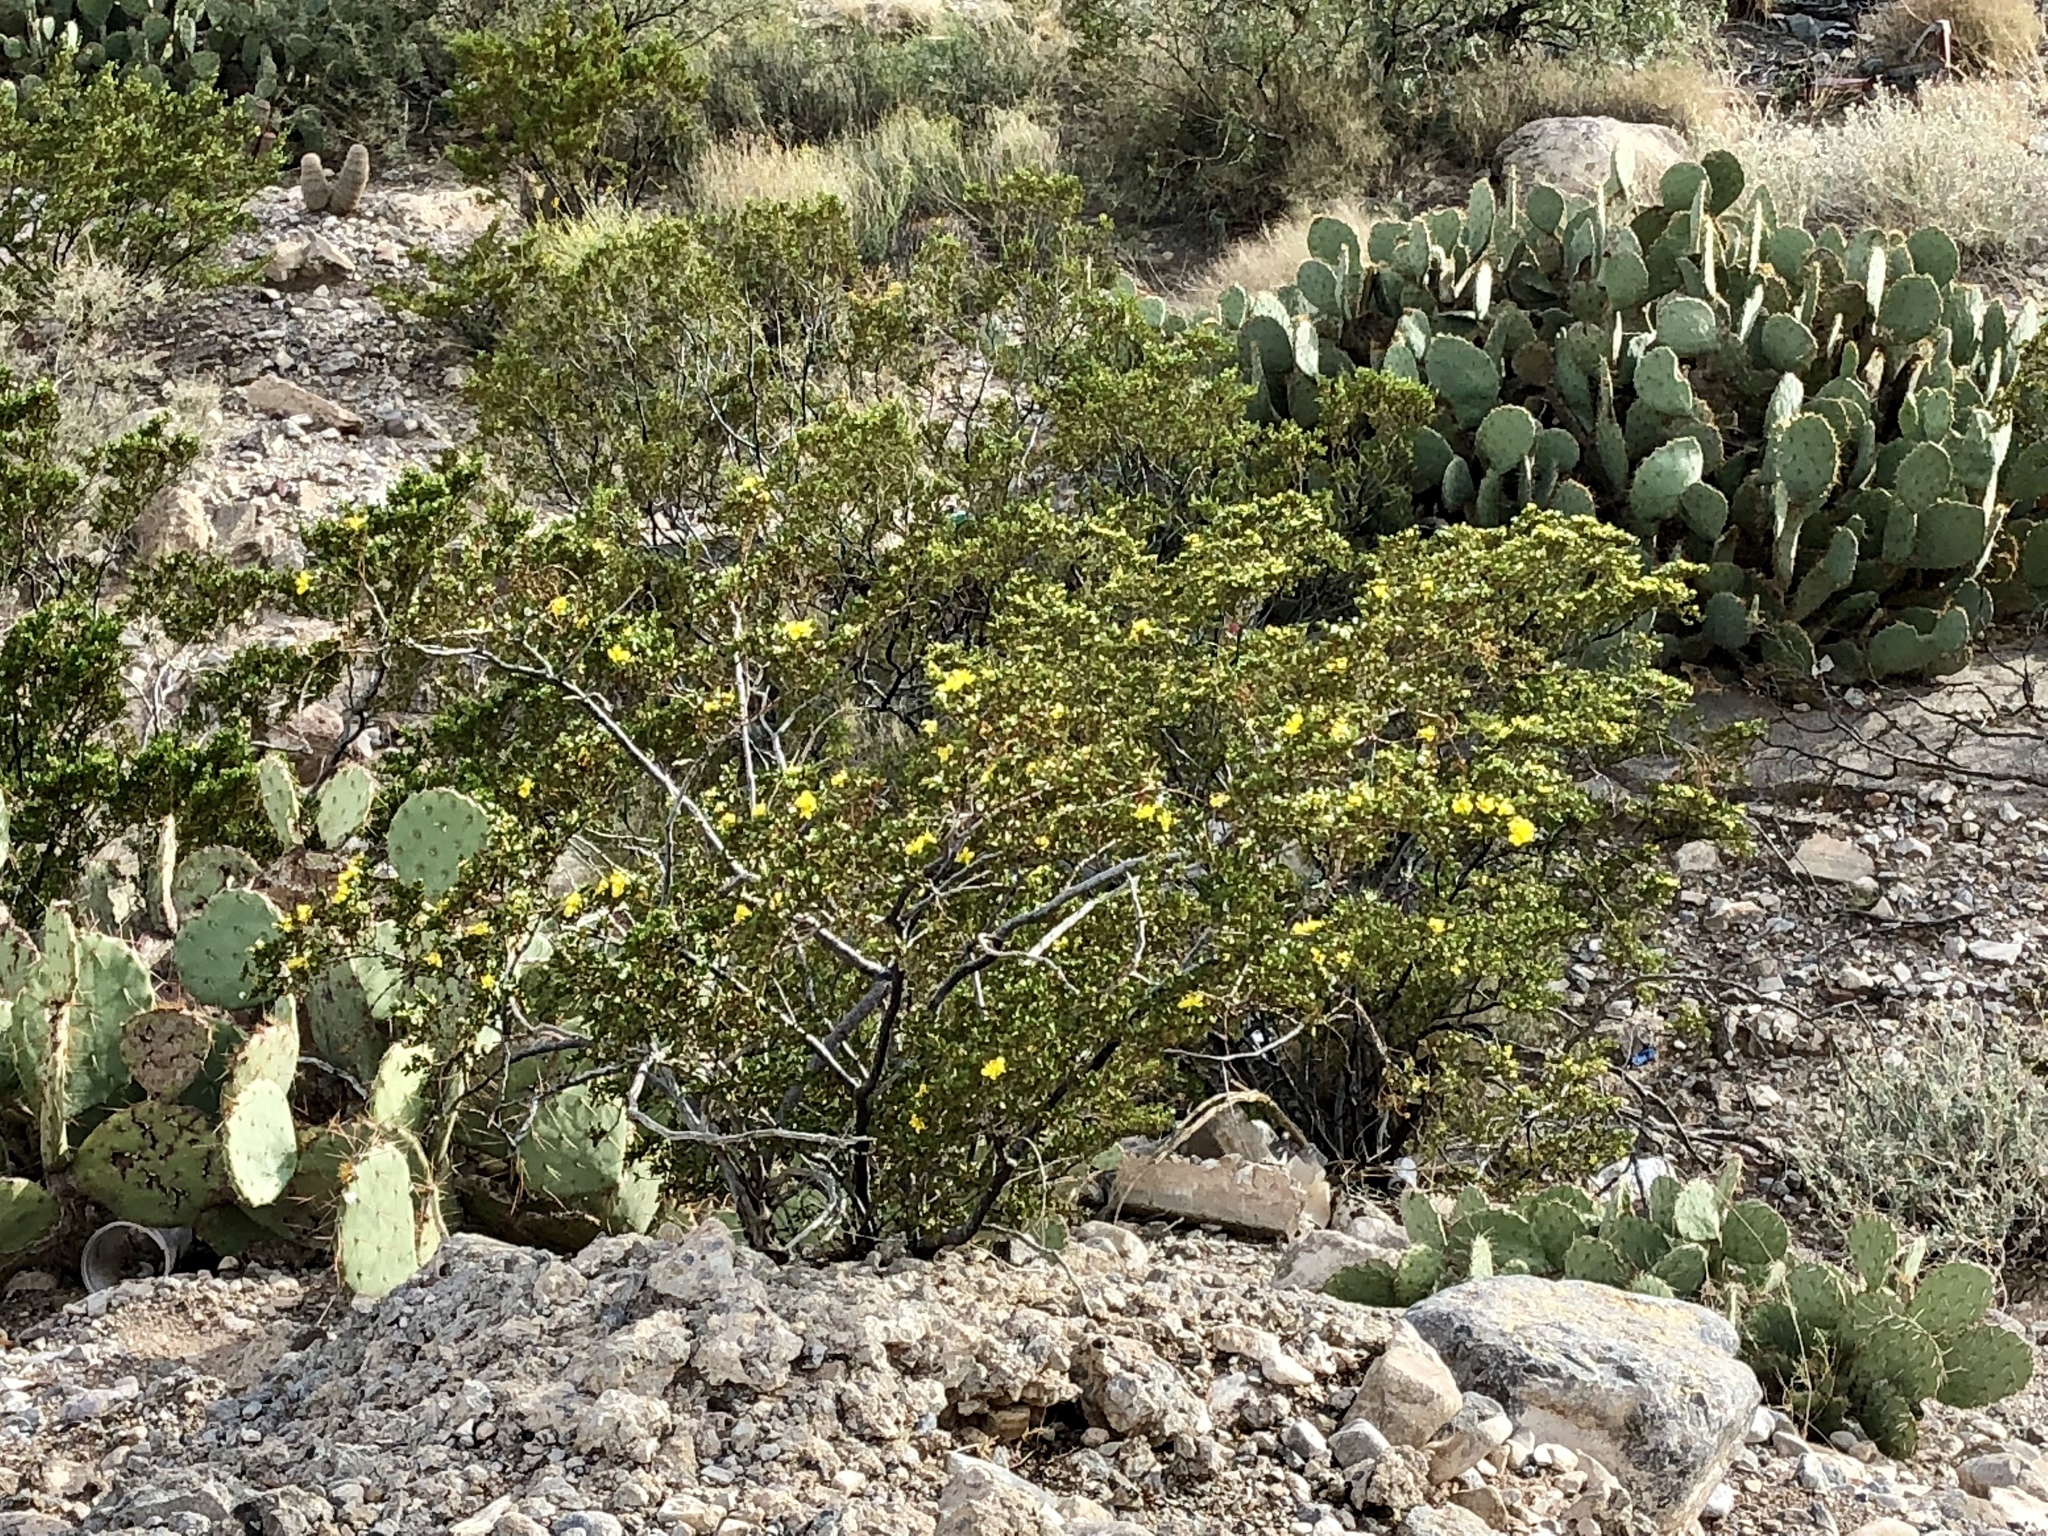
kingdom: Plantae
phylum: Tracheophyta
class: Magnoliopsida
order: Zygophyllales
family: Zygophyllaceae
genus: Larrea
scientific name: Larrea tridentata
